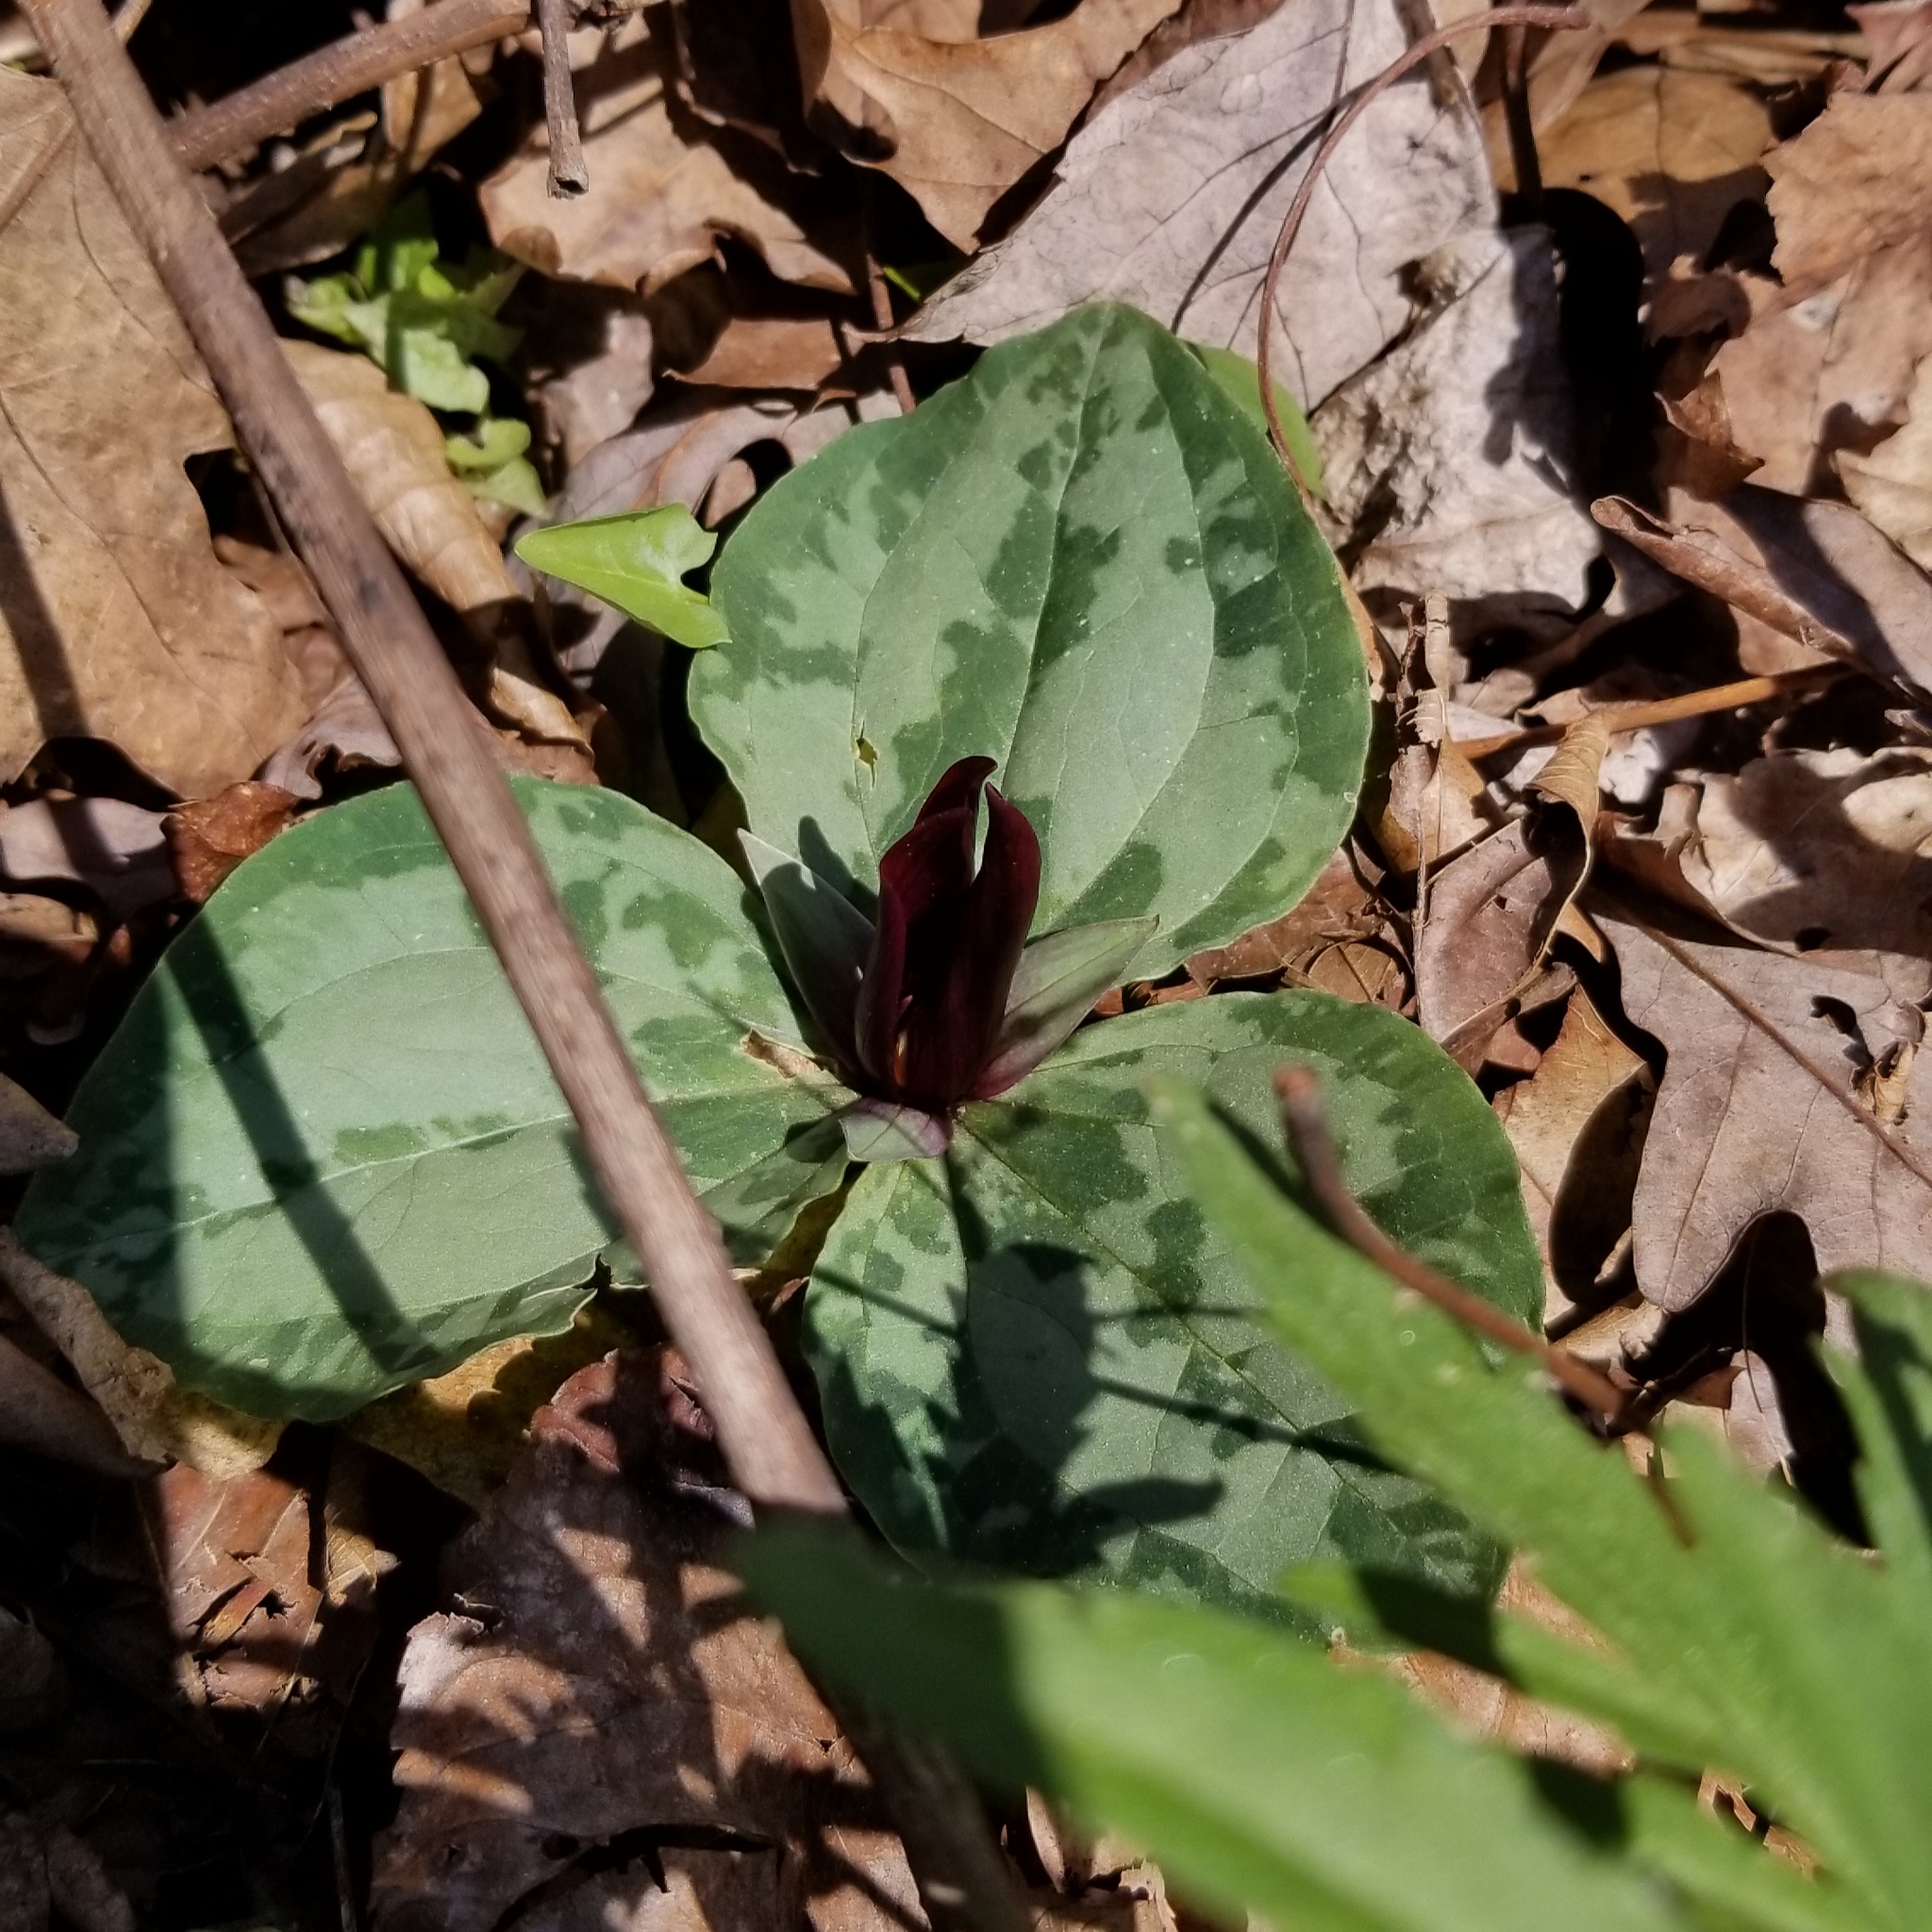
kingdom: Plantae
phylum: Tracheophyta
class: Liliopsida
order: Liliales
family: Melanthiaceae
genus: Trillium
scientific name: Trillium decumbens
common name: Decumbent trillium
